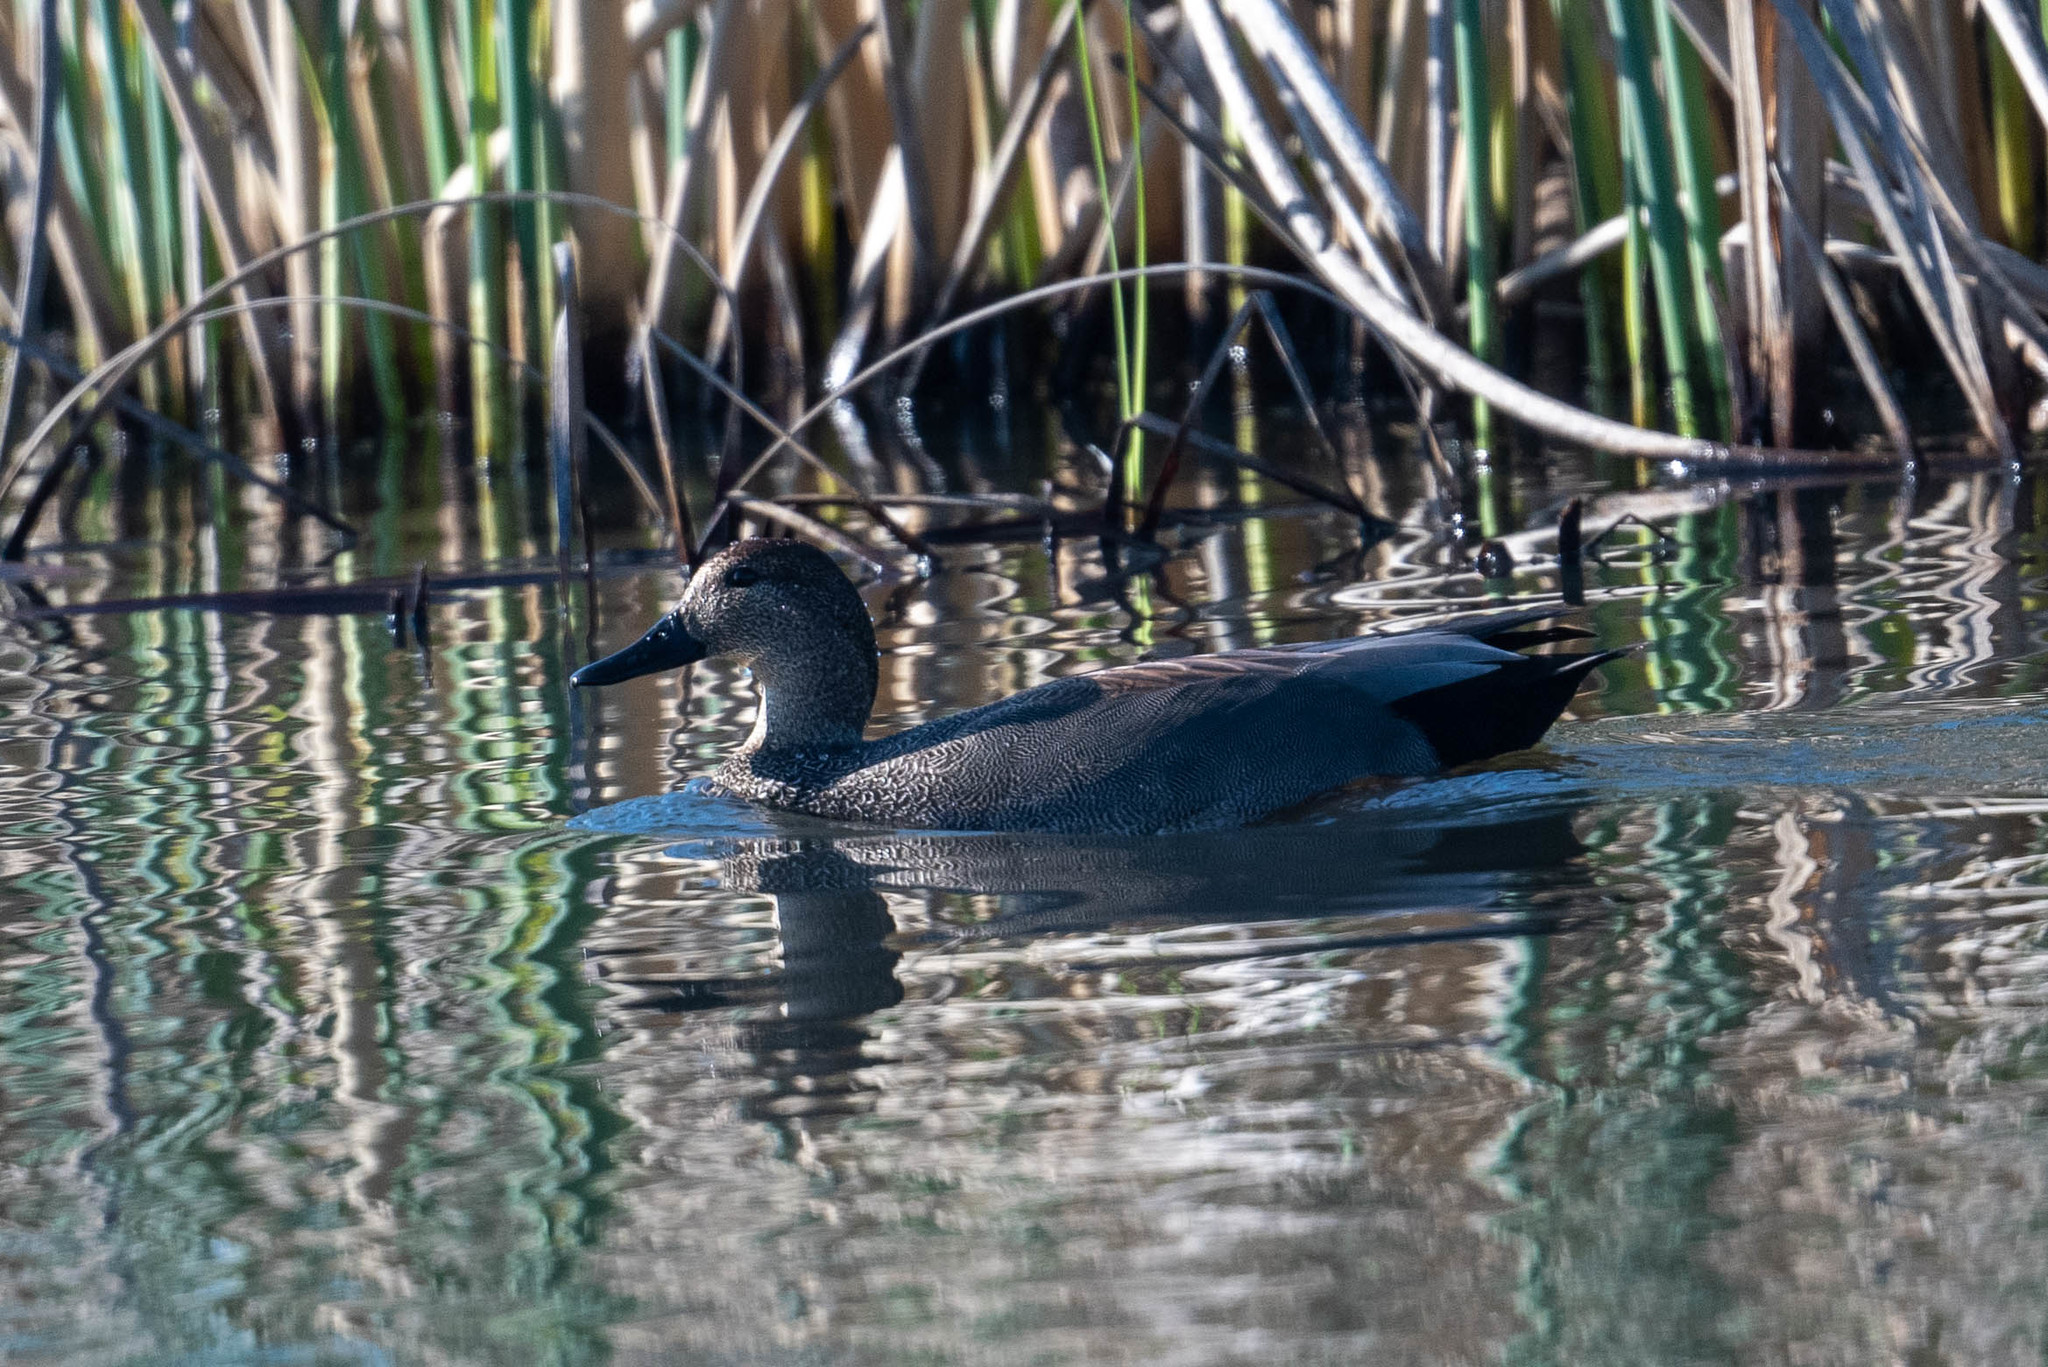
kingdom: Animalia
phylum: Chordata
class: Aves
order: Anseriformes
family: Anatidae
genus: Mareca
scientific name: Mareca strepera
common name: Gadwall
